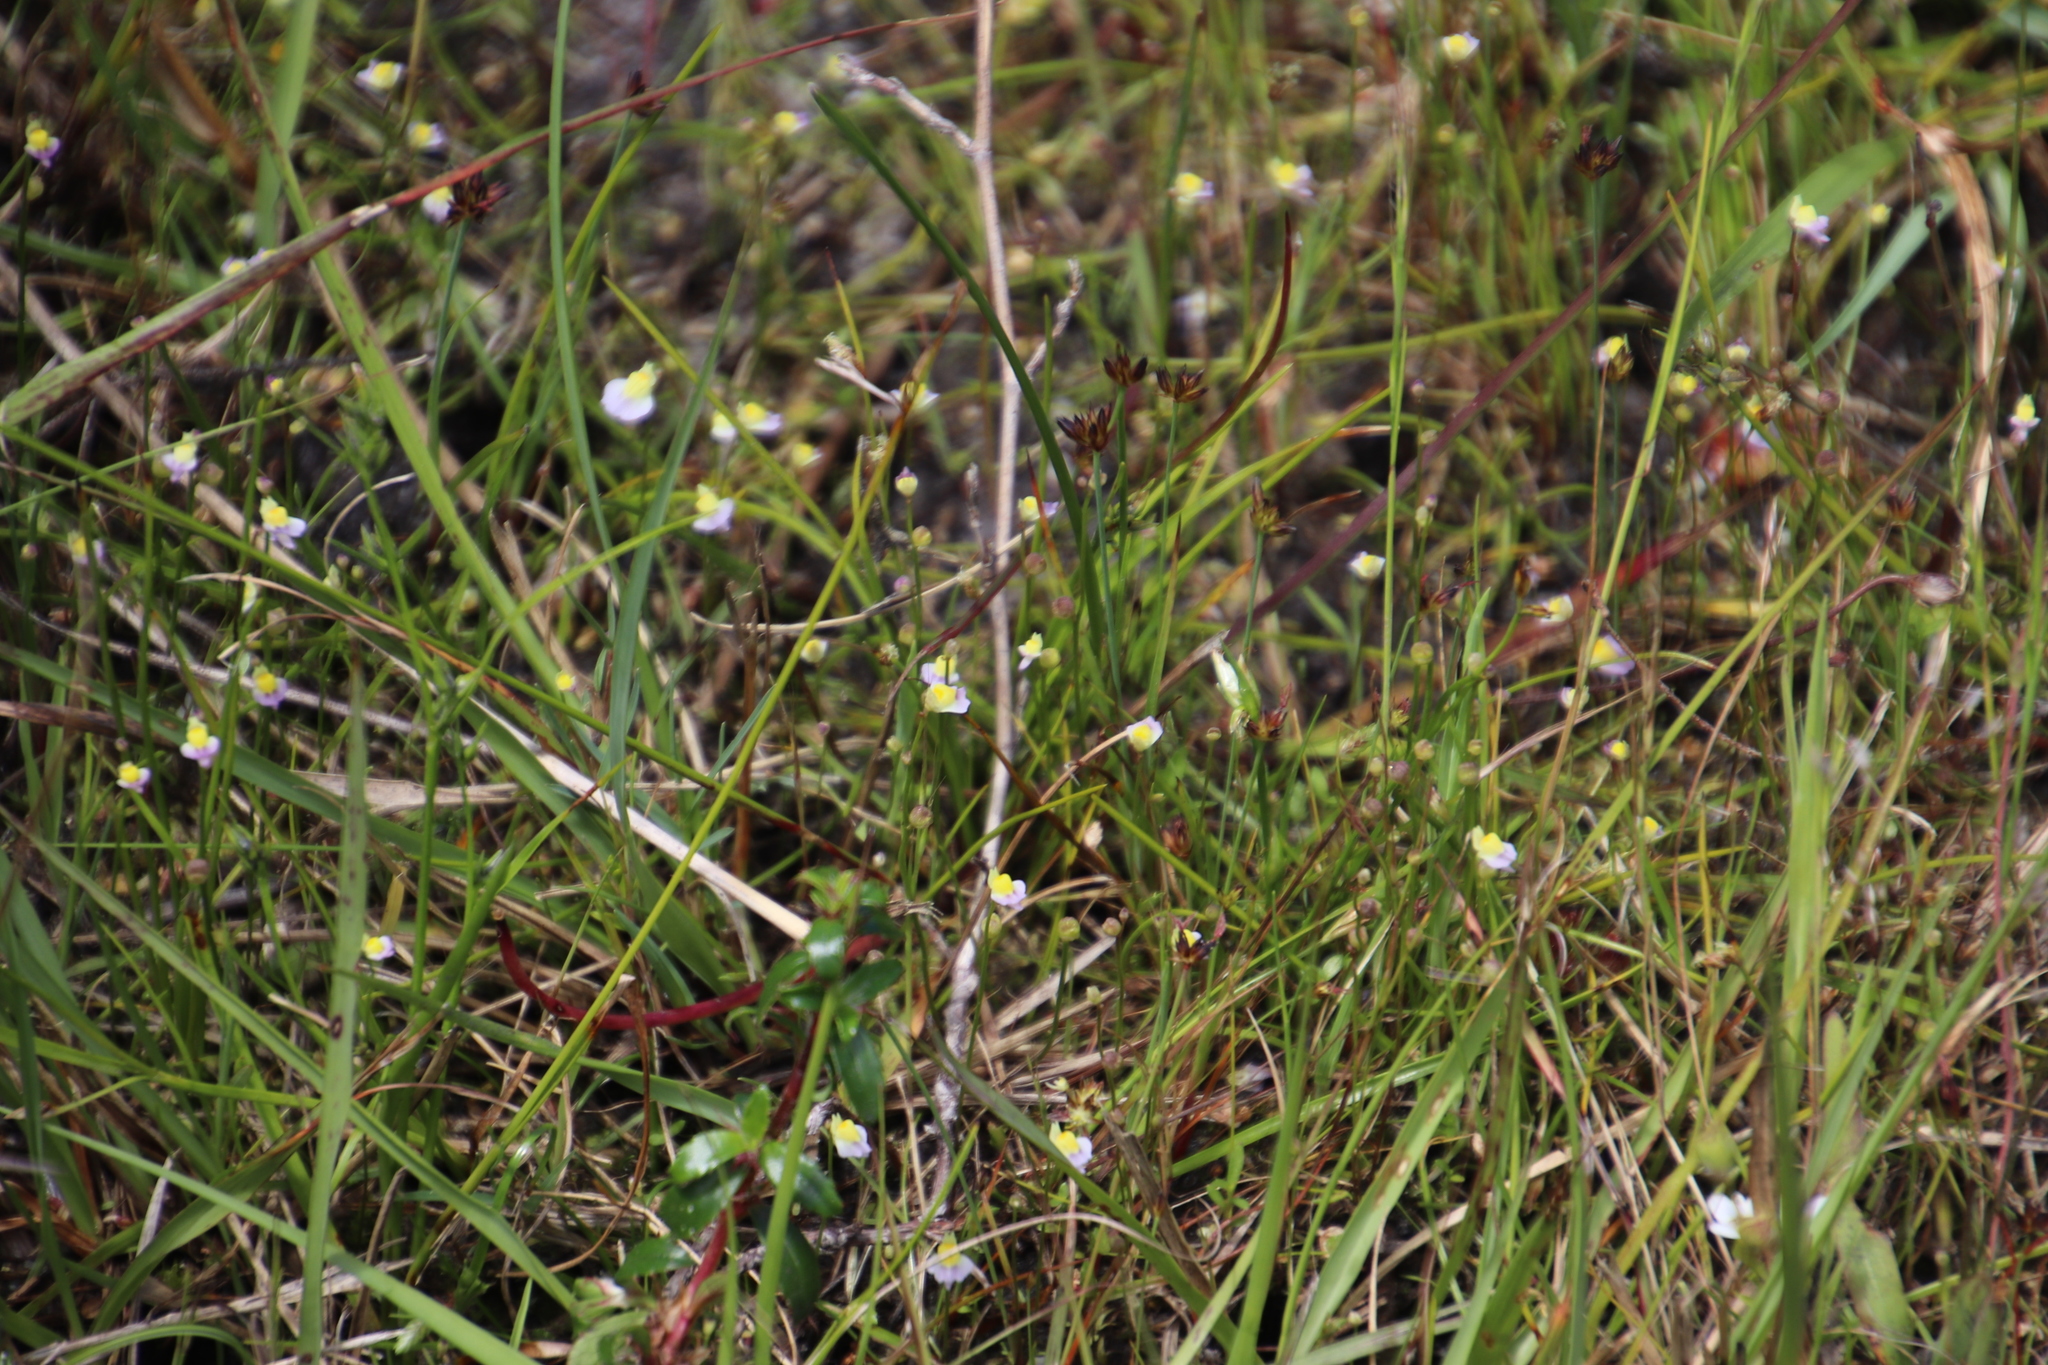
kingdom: Plantae
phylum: Tracheophyta
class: Magnoliopsida
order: Lamiales
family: Lentibulariaceae
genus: Utricularia
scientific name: Utricularia bisquamata
